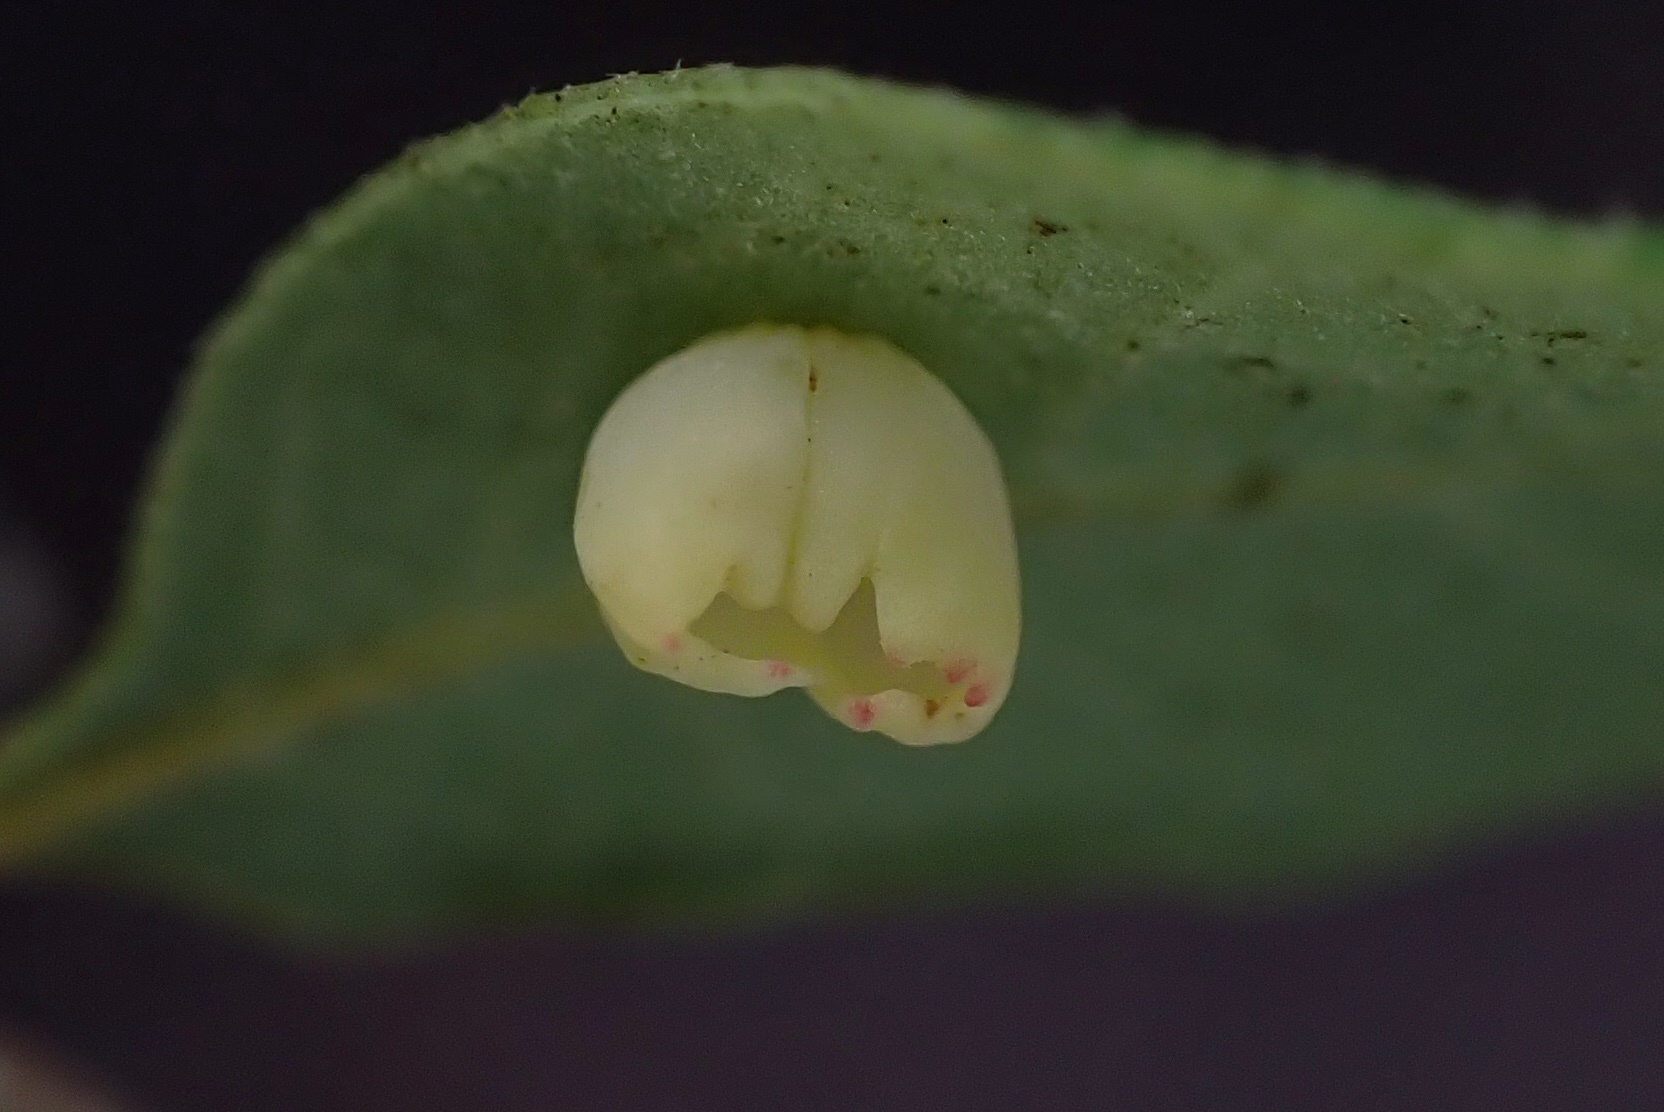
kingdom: Animalia
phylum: Arthropoda
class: Insecta
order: Hymenoptera
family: Cynipidae
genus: Andricus
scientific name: Andricus
